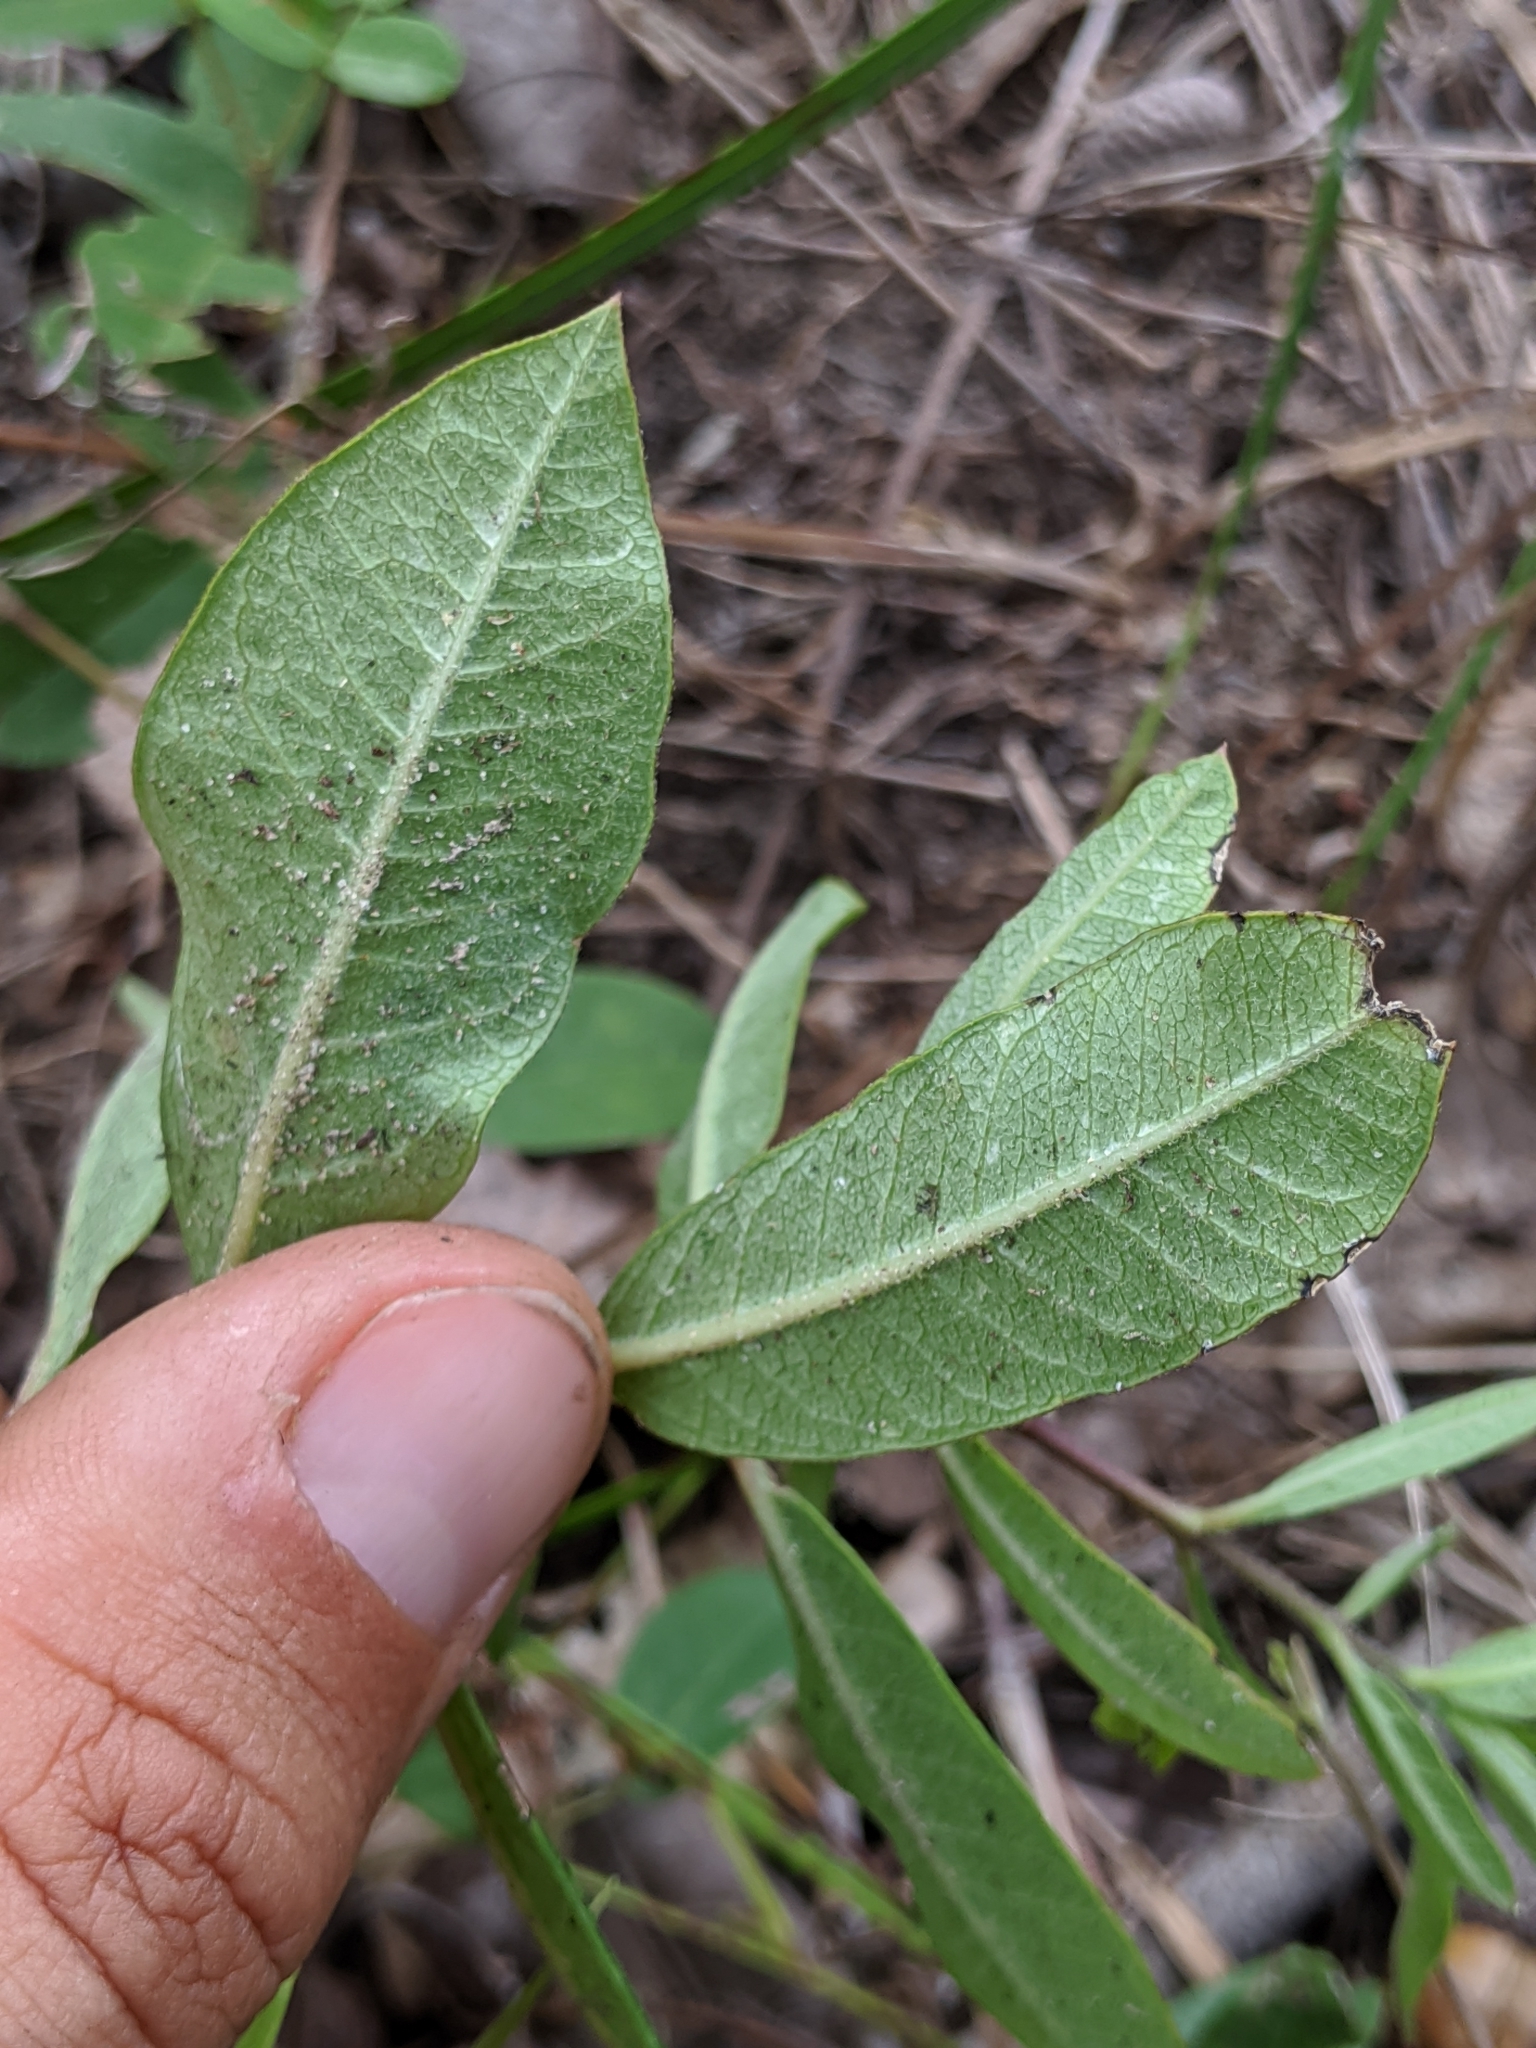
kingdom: Plantae
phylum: Tracheophyta
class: Magnoliopsida
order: Gentianales
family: Apocynaceae
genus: Asclepias
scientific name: Asclepias tomentosa
